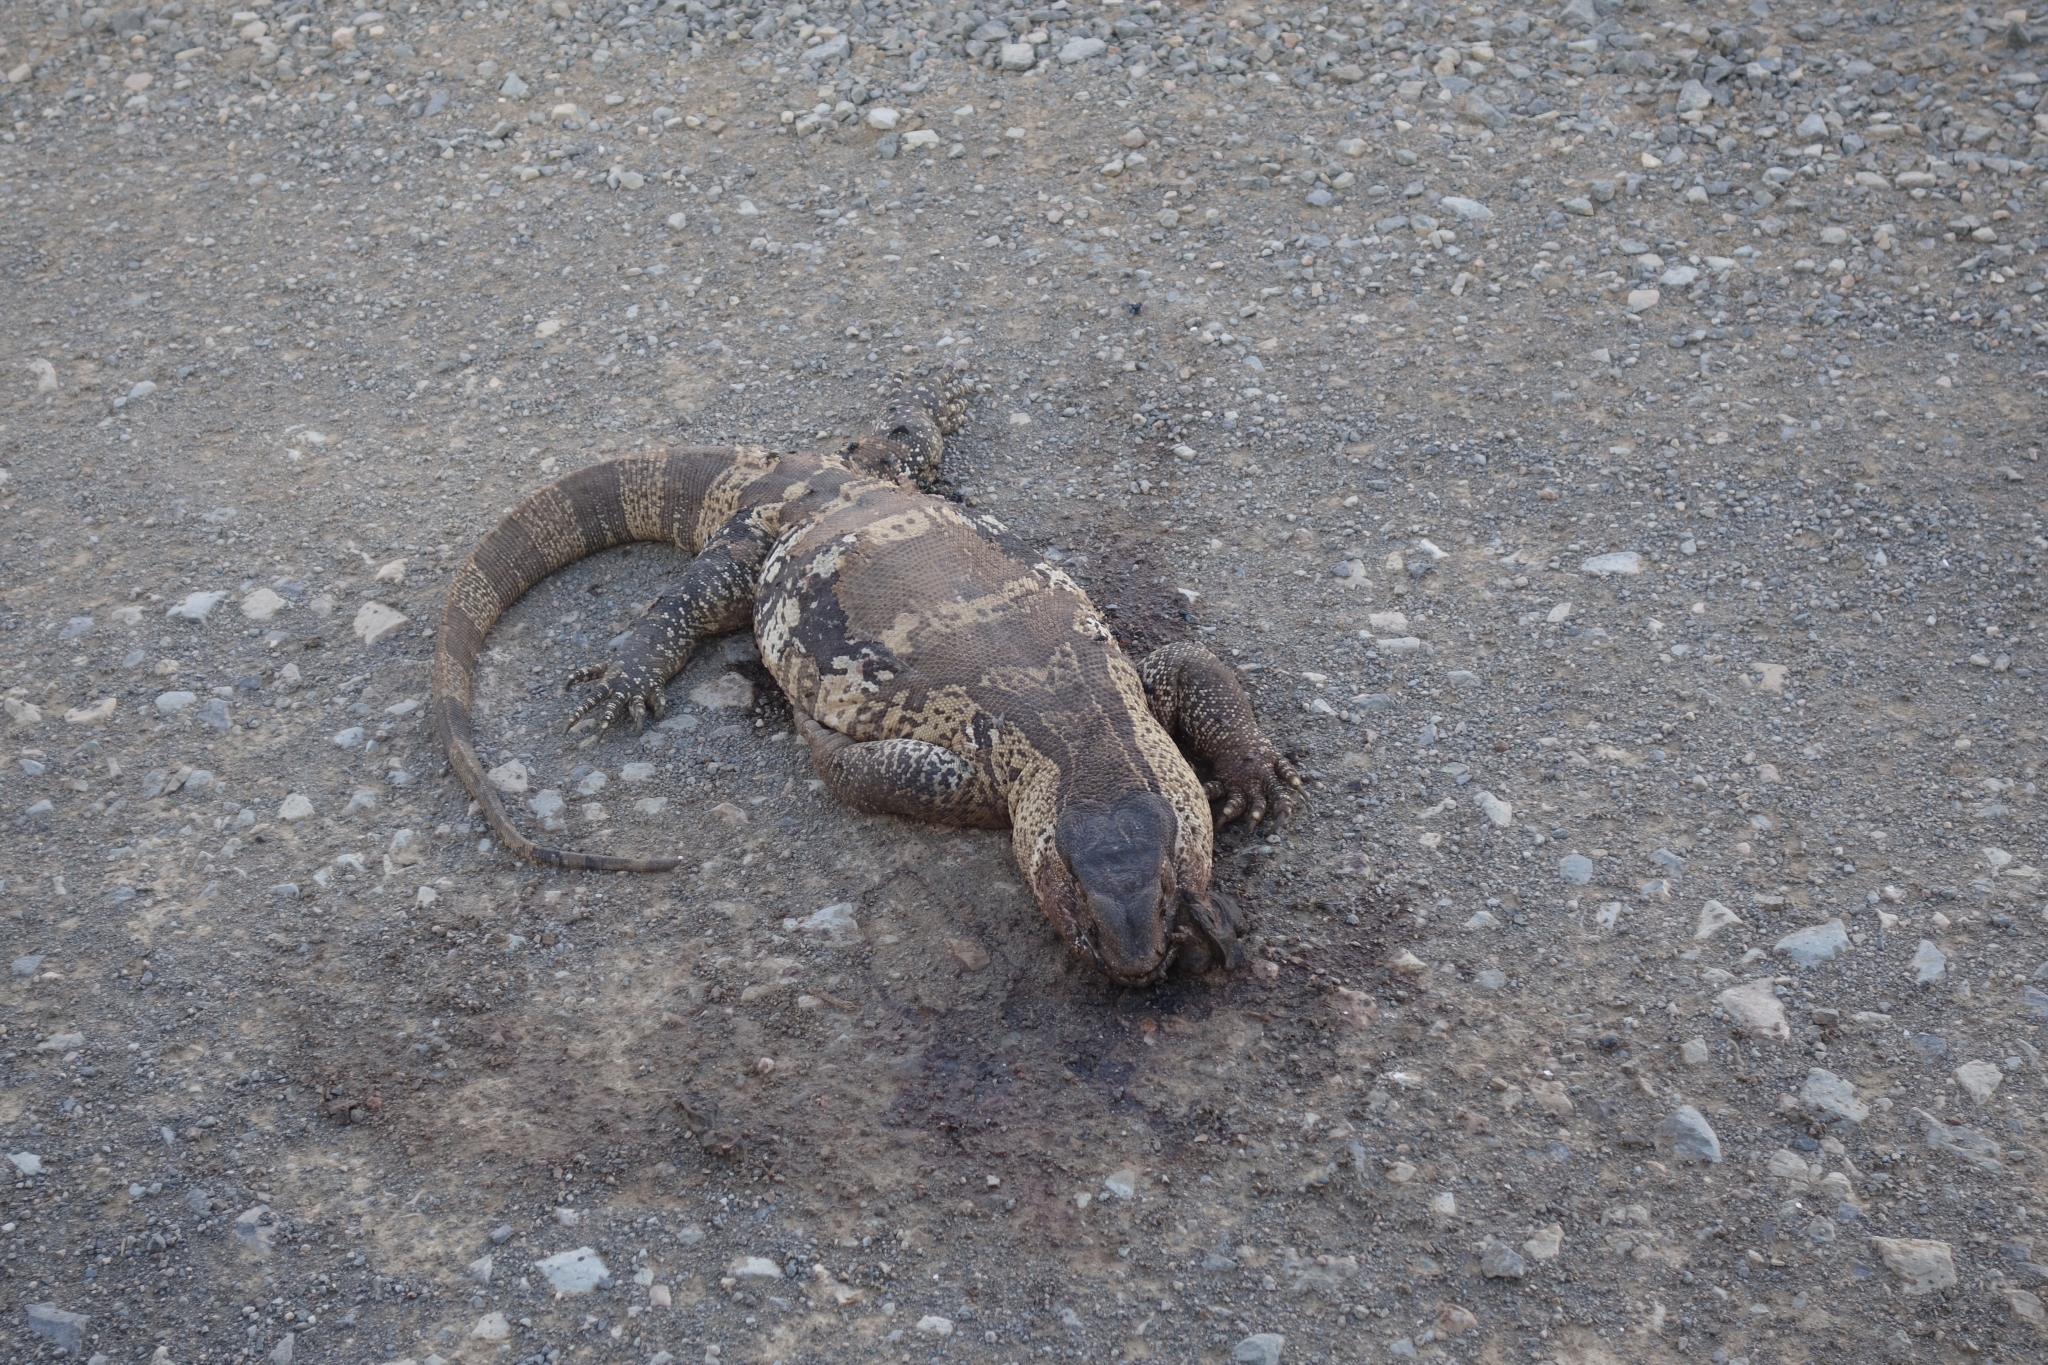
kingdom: Animalia
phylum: Chordata
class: Squamata
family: Varanidae
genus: Varanus
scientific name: Varanus albigularis
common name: White-throated monitor
